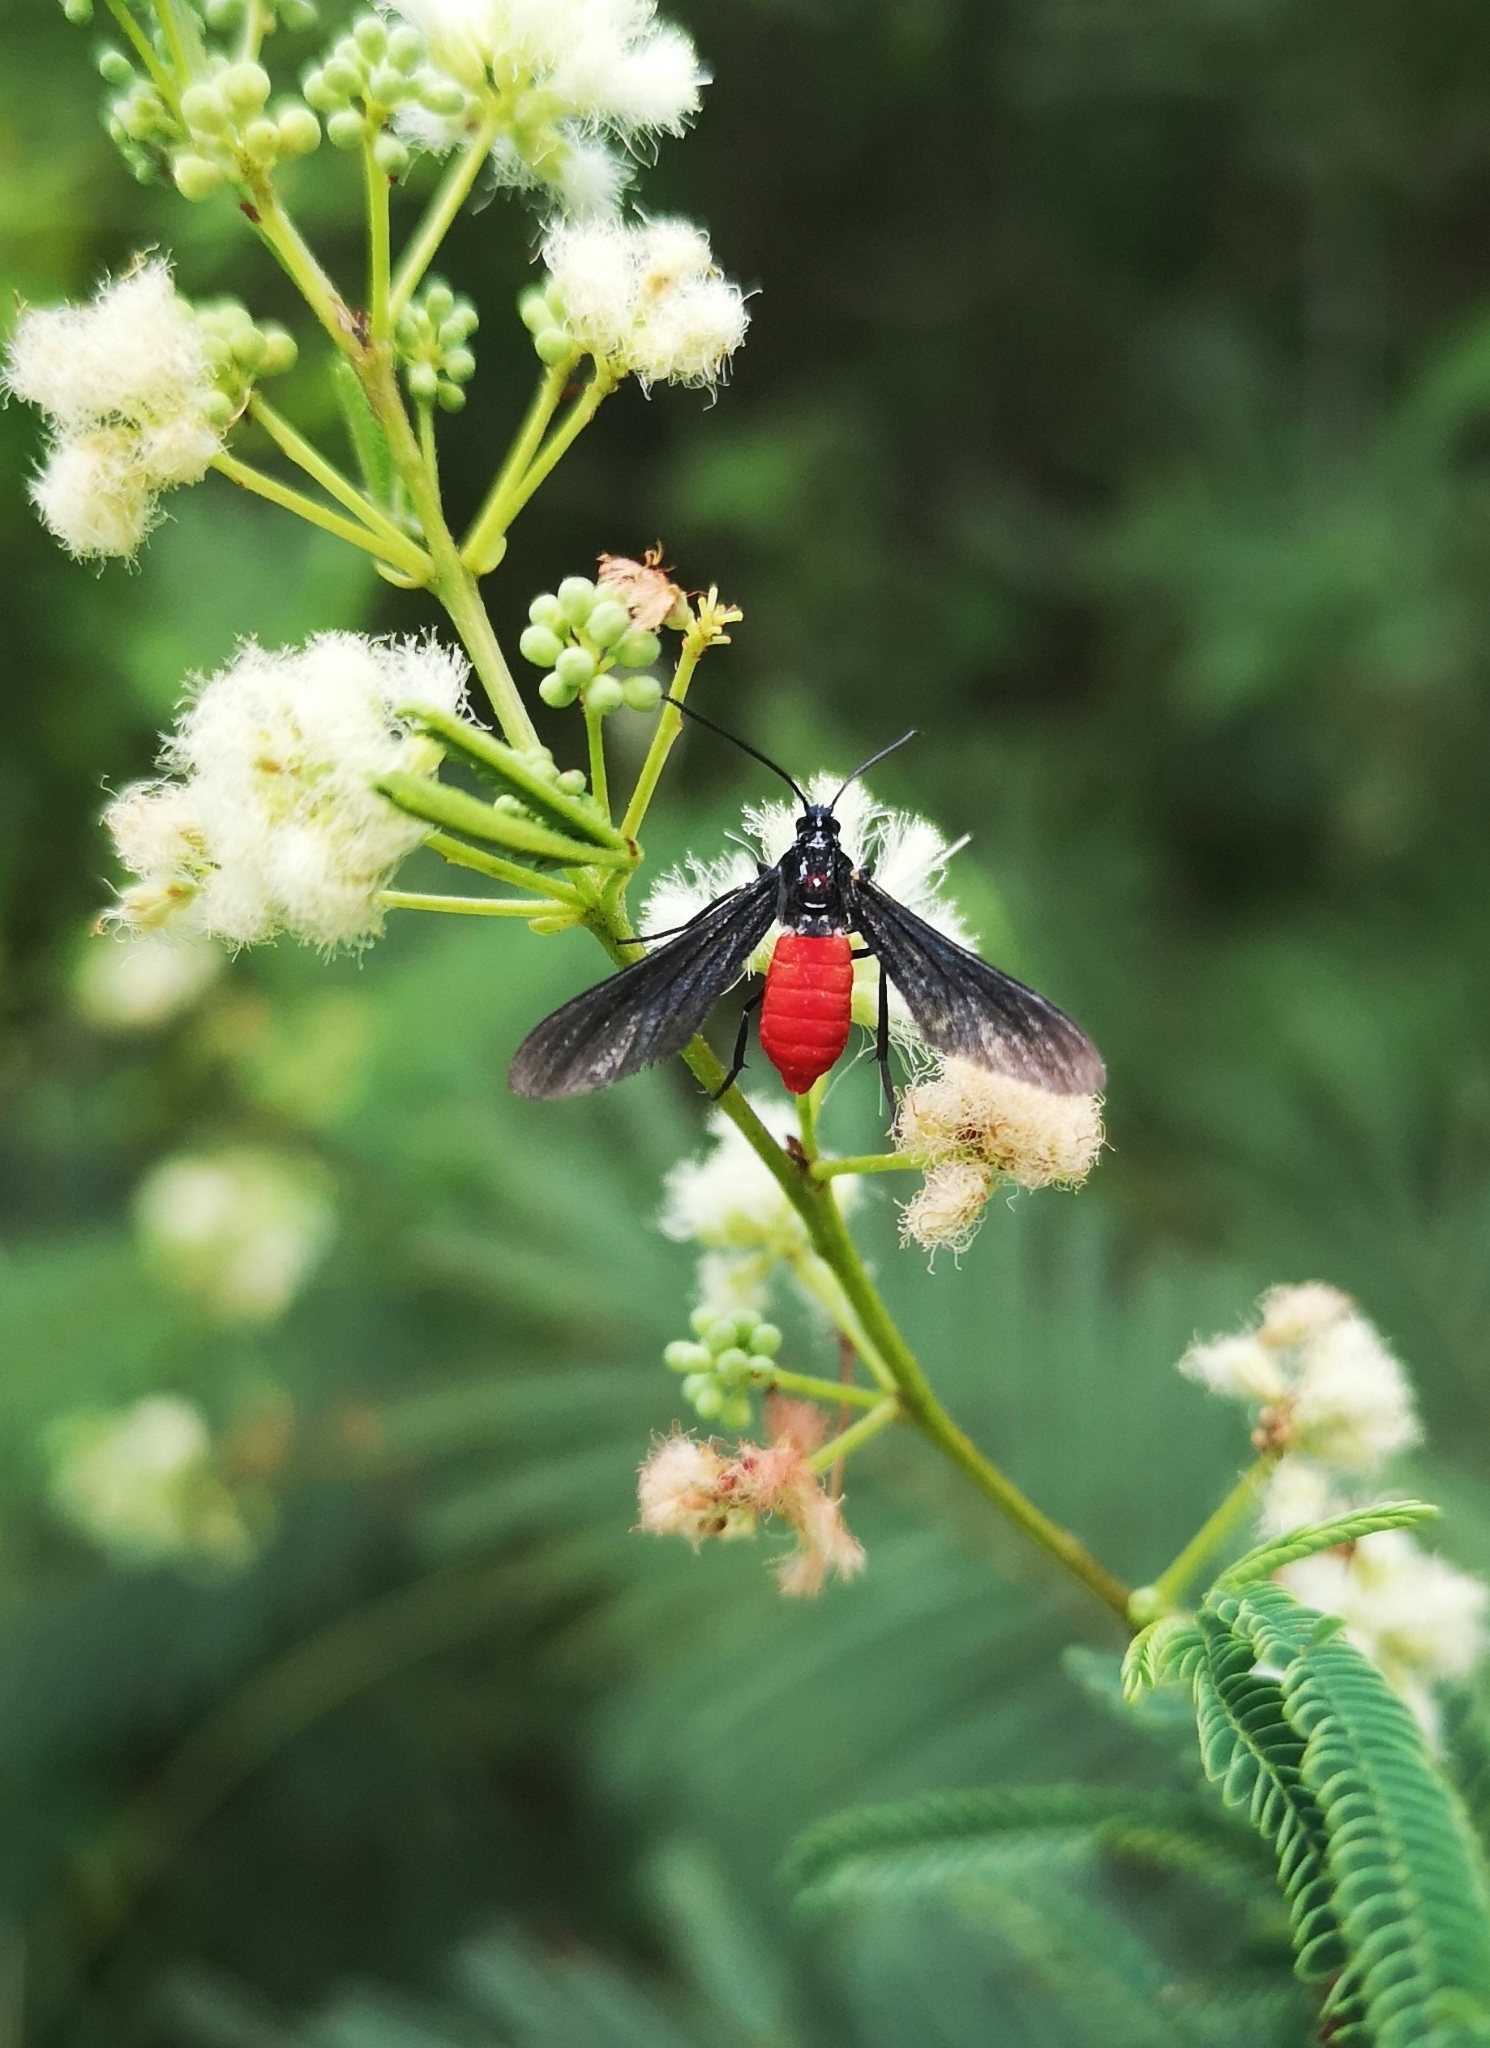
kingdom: Animalia
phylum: Arthropoda
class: Insecta
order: Lepidoptera
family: Erebidae
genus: Saurita
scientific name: Saurita mecrida
